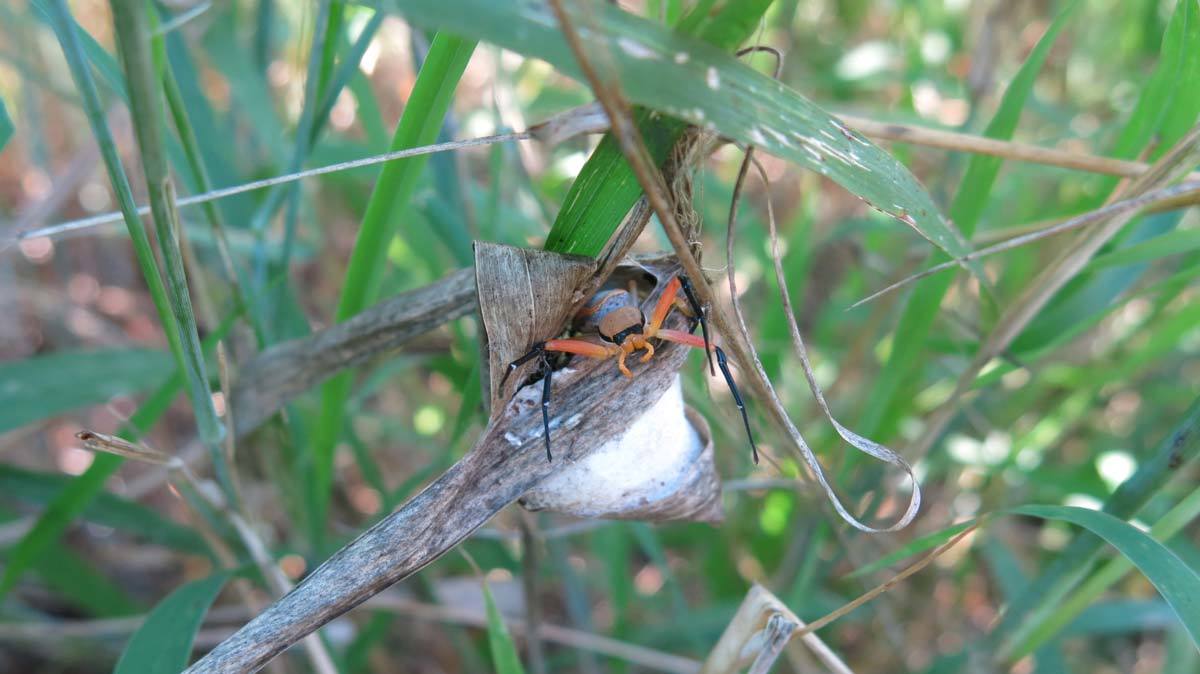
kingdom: Animalia
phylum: Arthropoda
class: Arachnida
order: Araneae
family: Thomisidae
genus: Platythomisus
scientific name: Platythomisus deserticola
